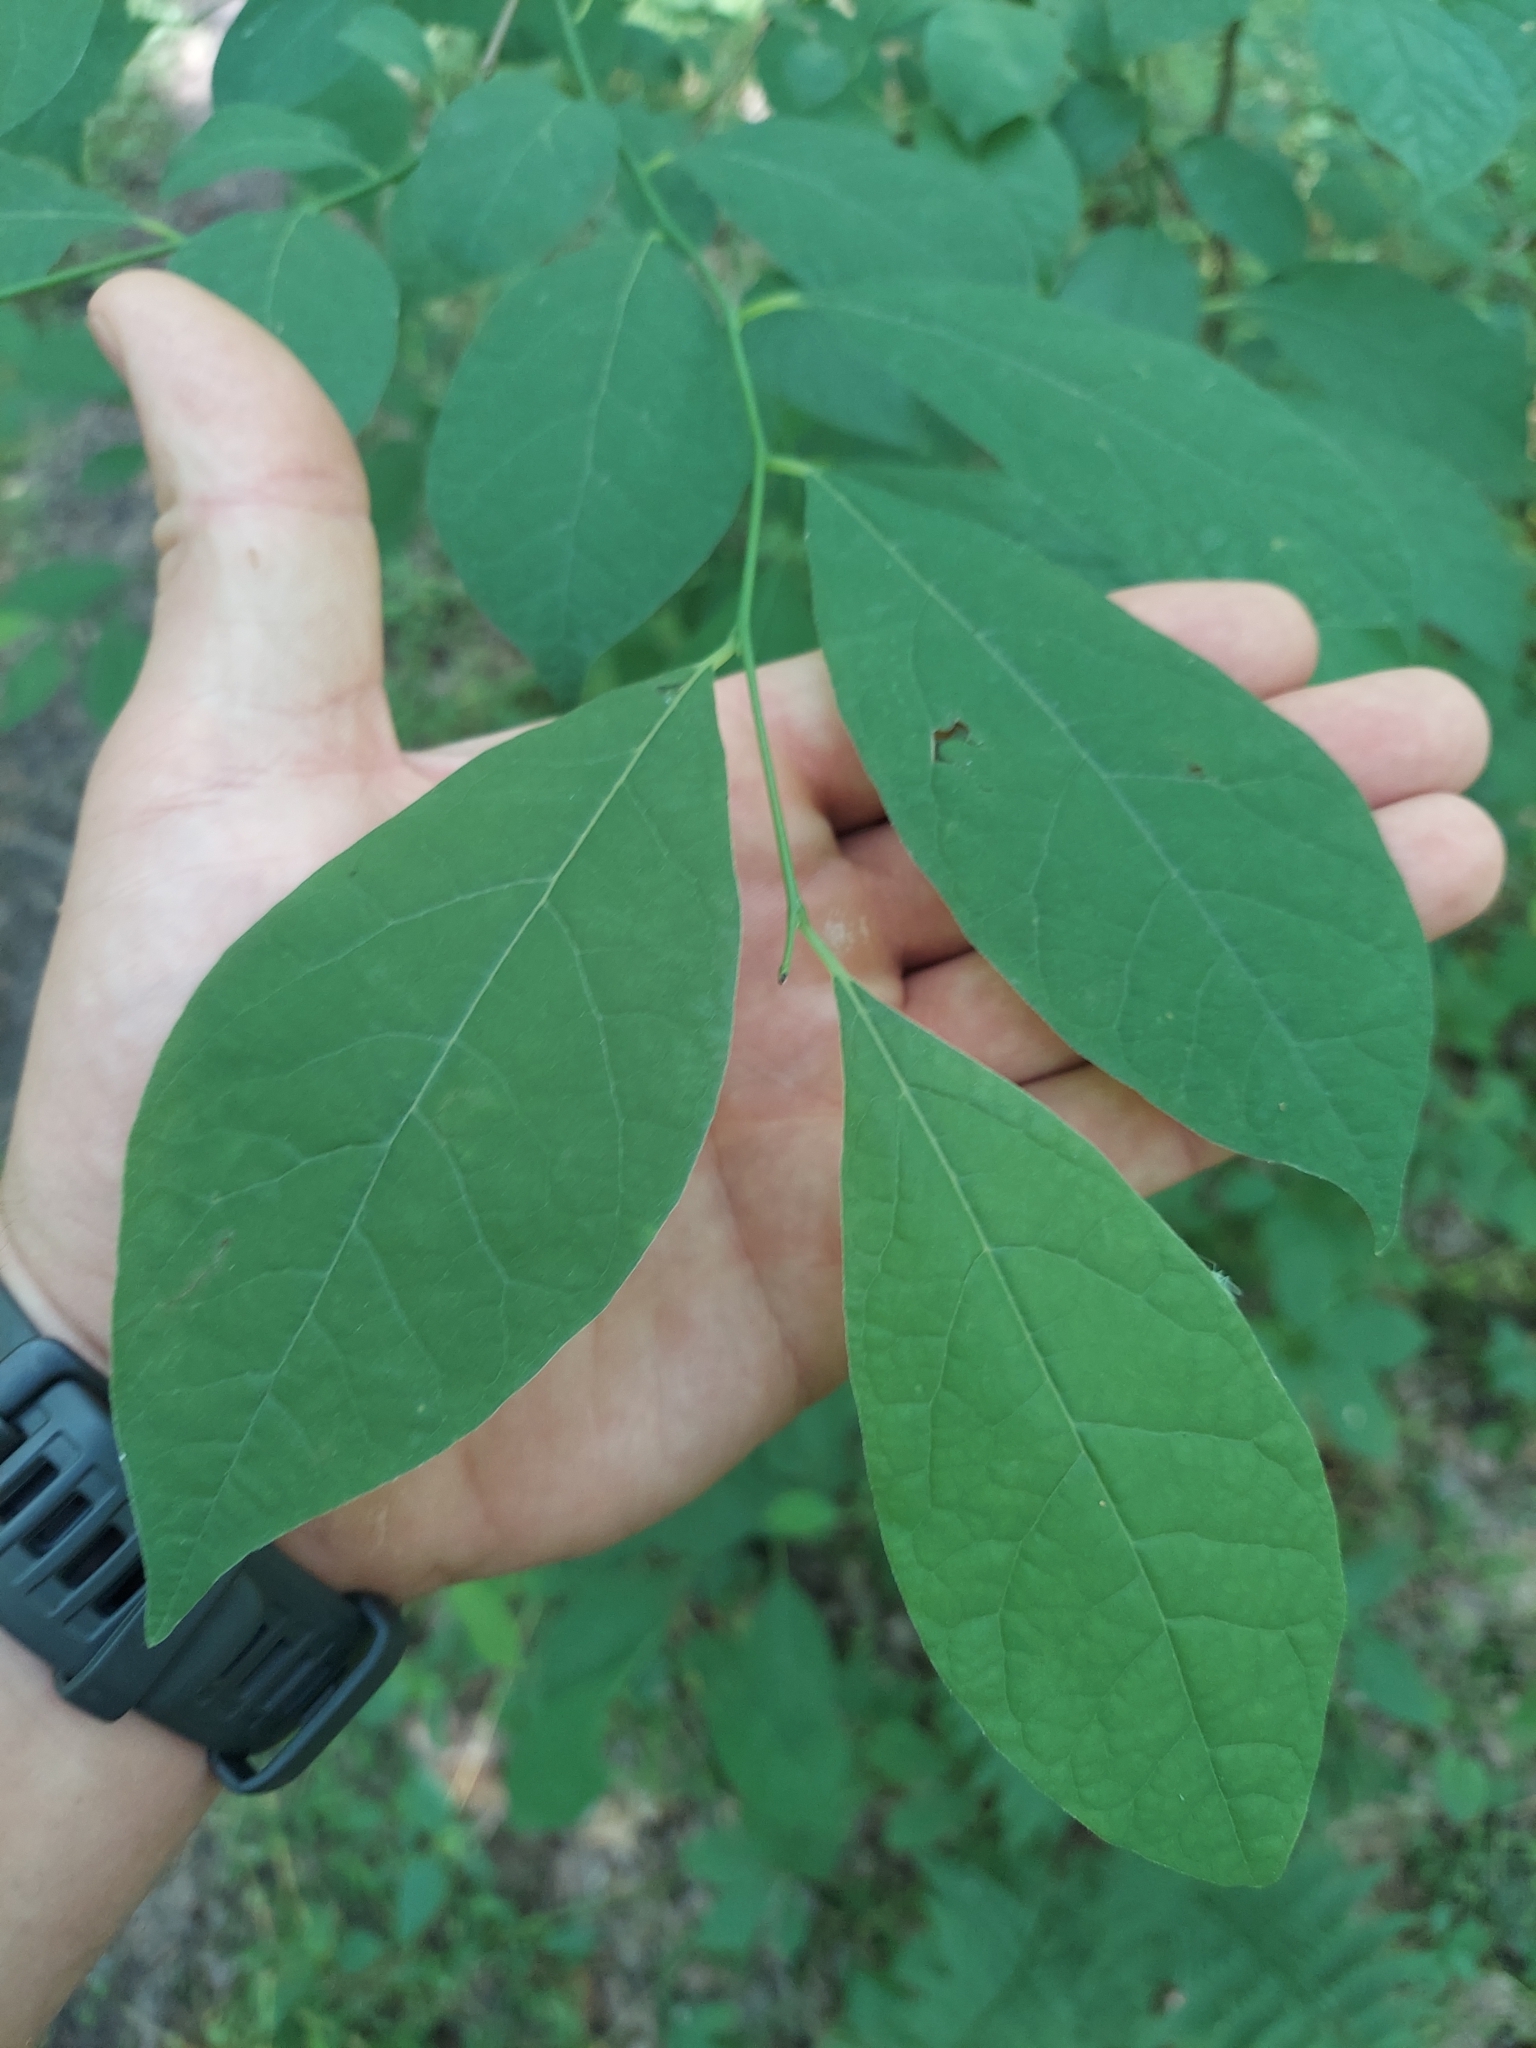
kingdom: Plantae
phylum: Tracheophyta
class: Magnoliopsida
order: Laurales
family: Lauraceae
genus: Lindera
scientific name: Lindera benzoin
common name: Spicebush
